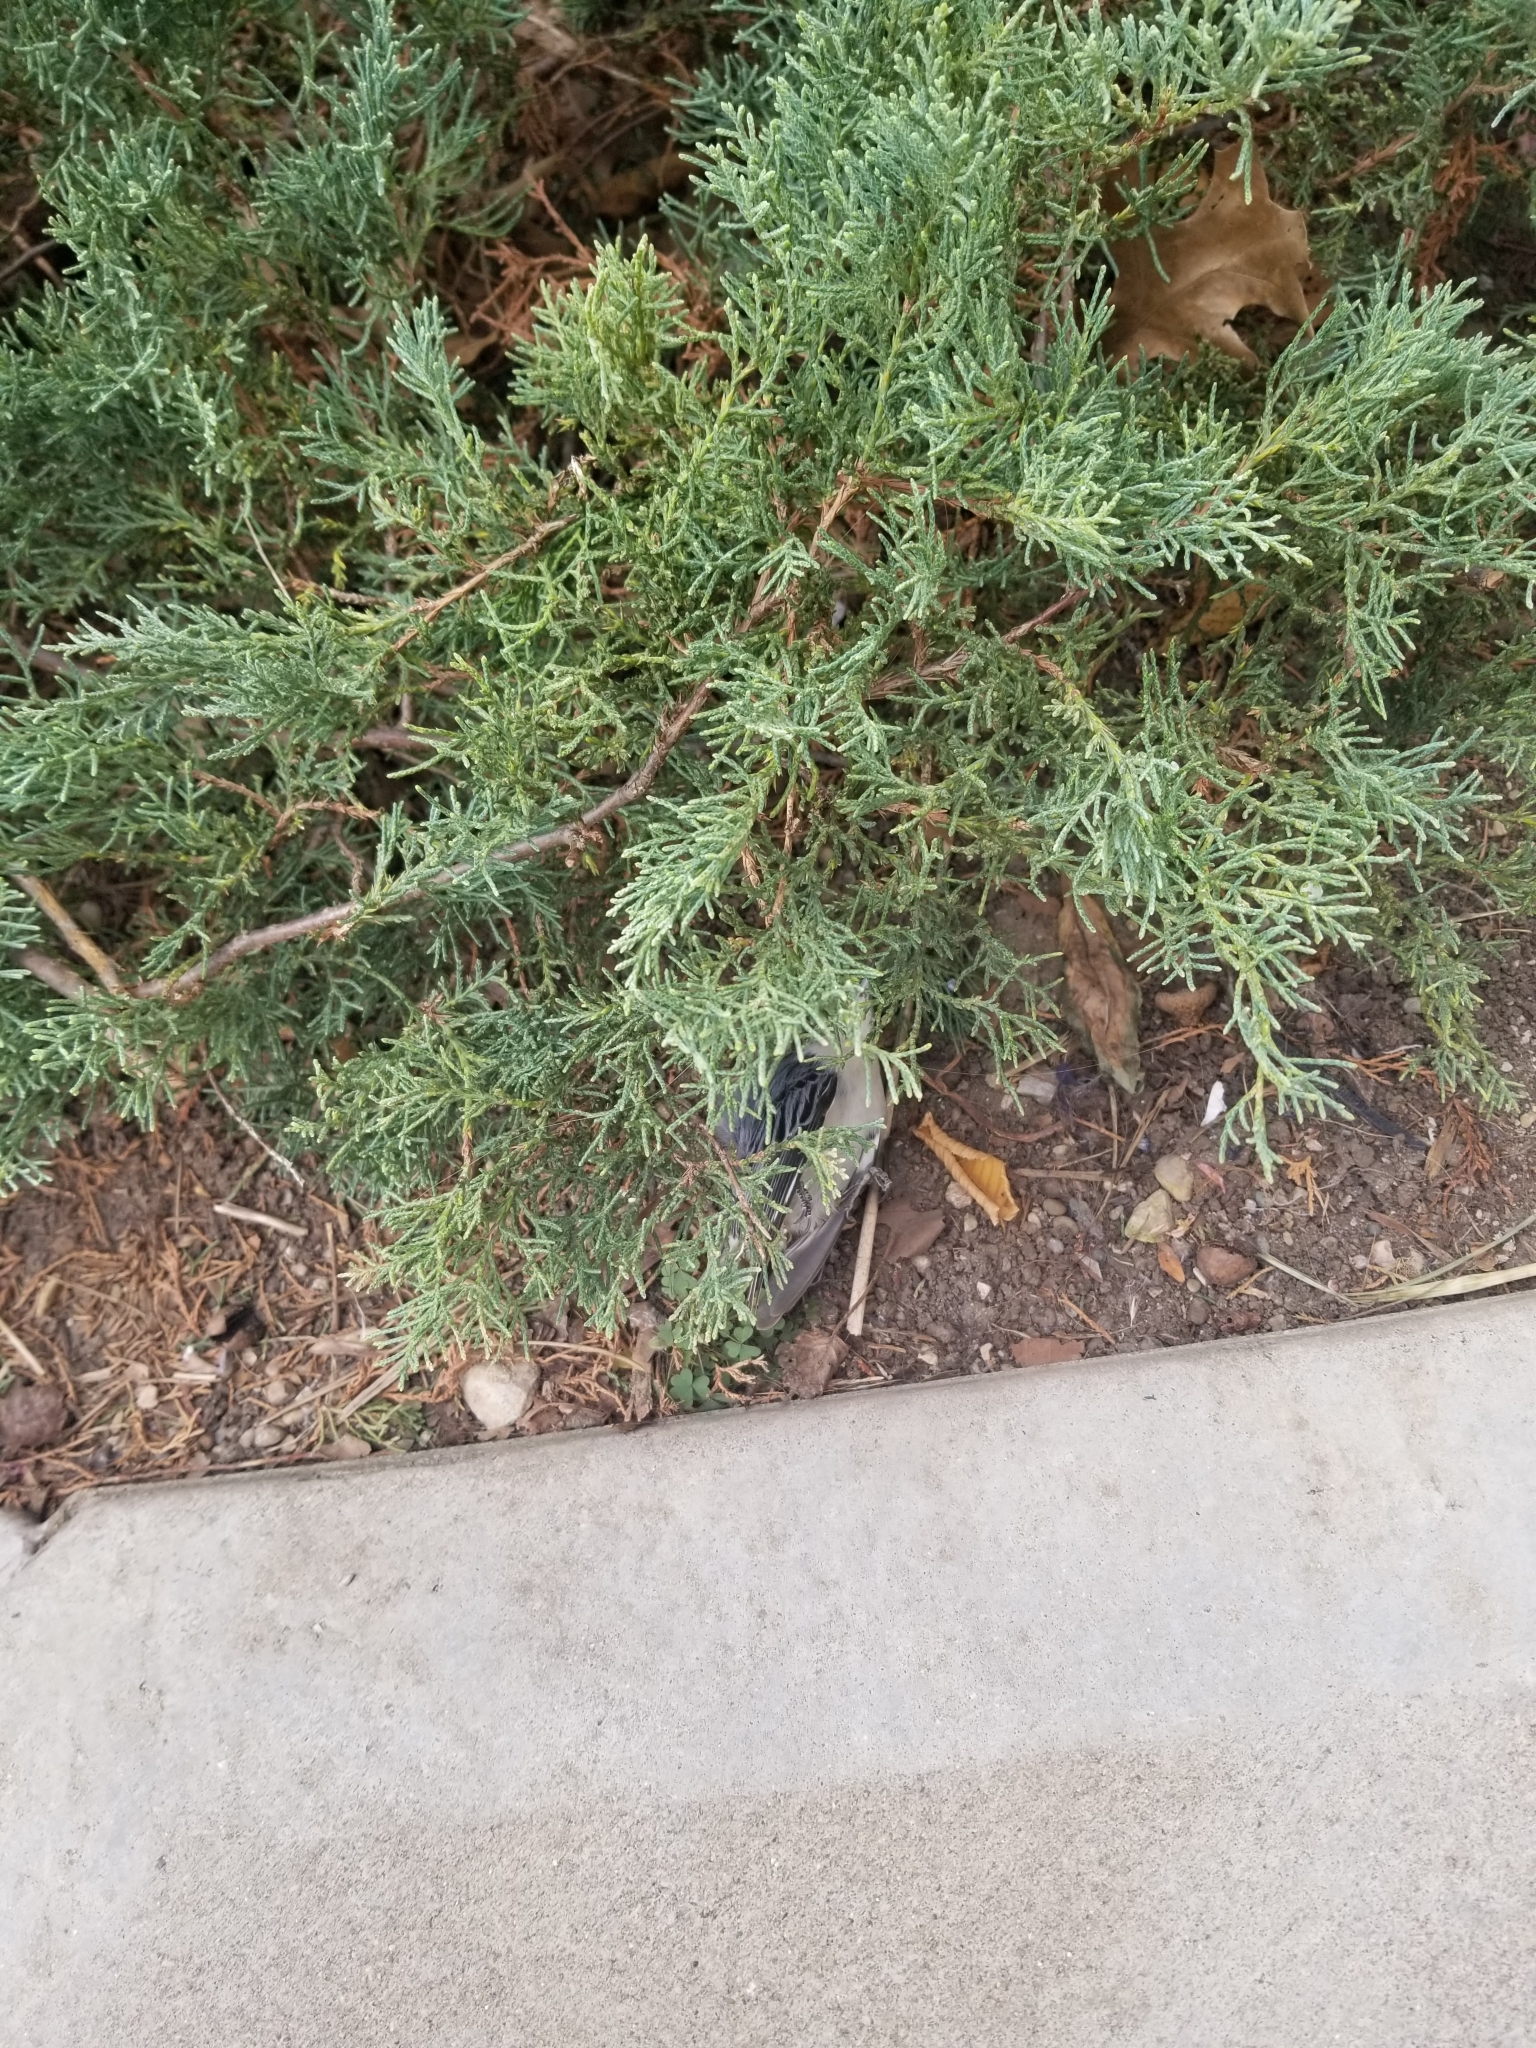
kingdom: Animalia
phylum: Chordata
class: Aves
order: Passeriformes
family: Sittidae
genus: Sitta
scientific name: Sitta carolinensis
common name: White-breasted nuthatch
